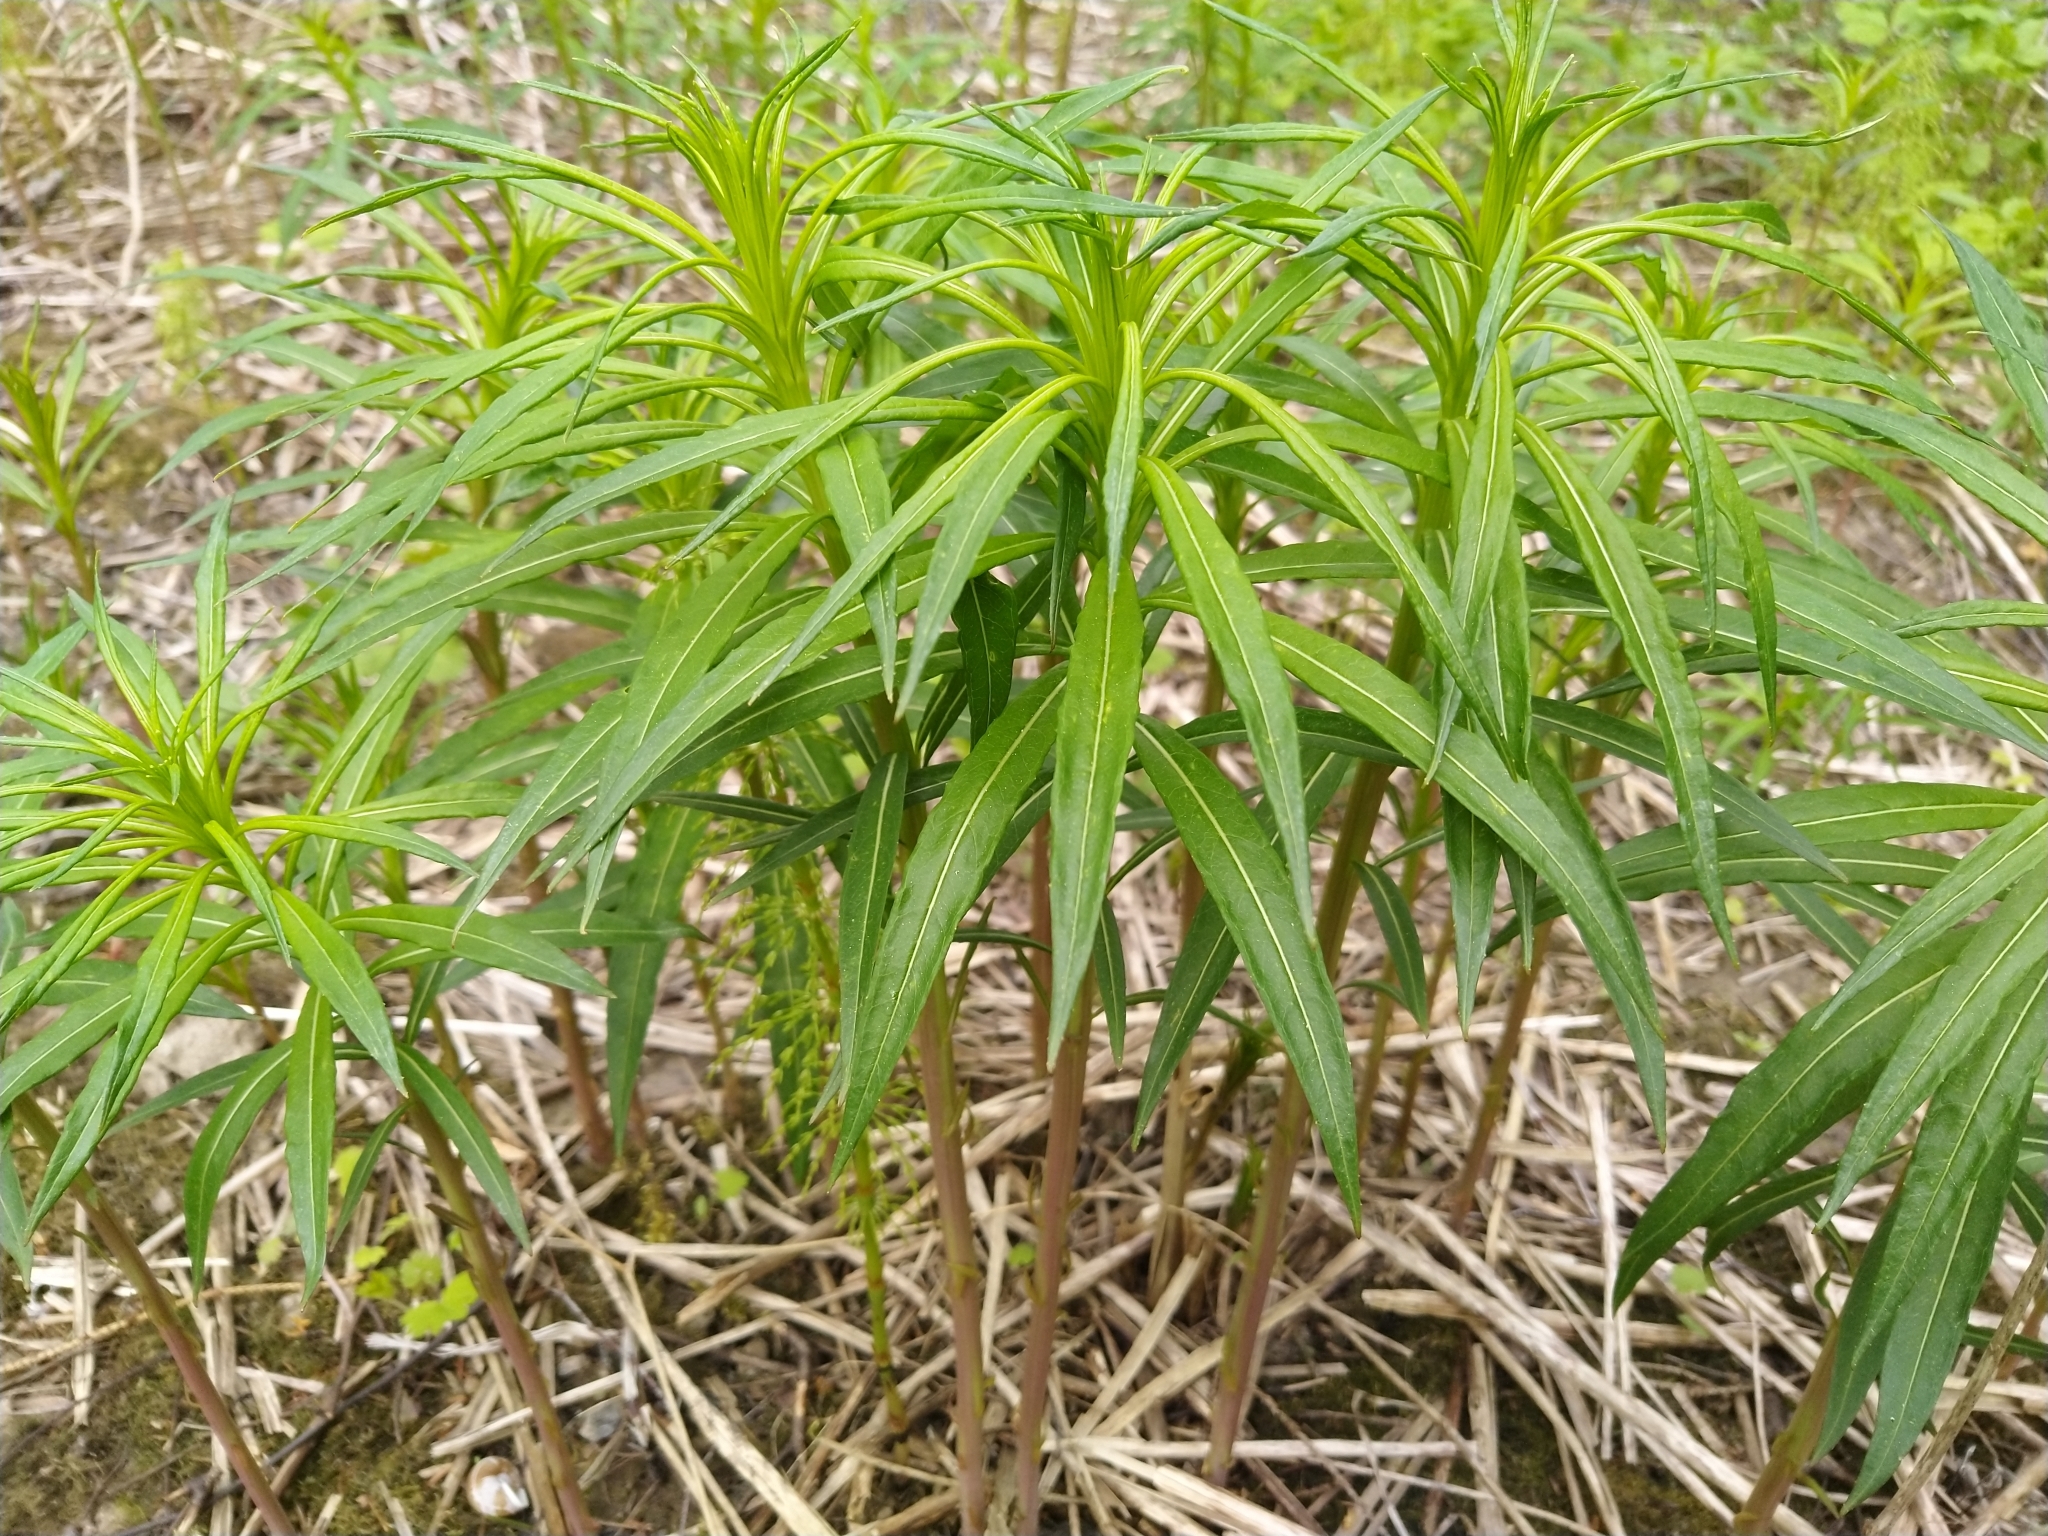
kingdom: Plantae
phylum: Tracheophyta
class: Magnoliopsida
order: Myrtales
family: Onagraceae
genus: Chamaenerion
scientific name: Chamaenerion angustifolium
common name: Fireweed
